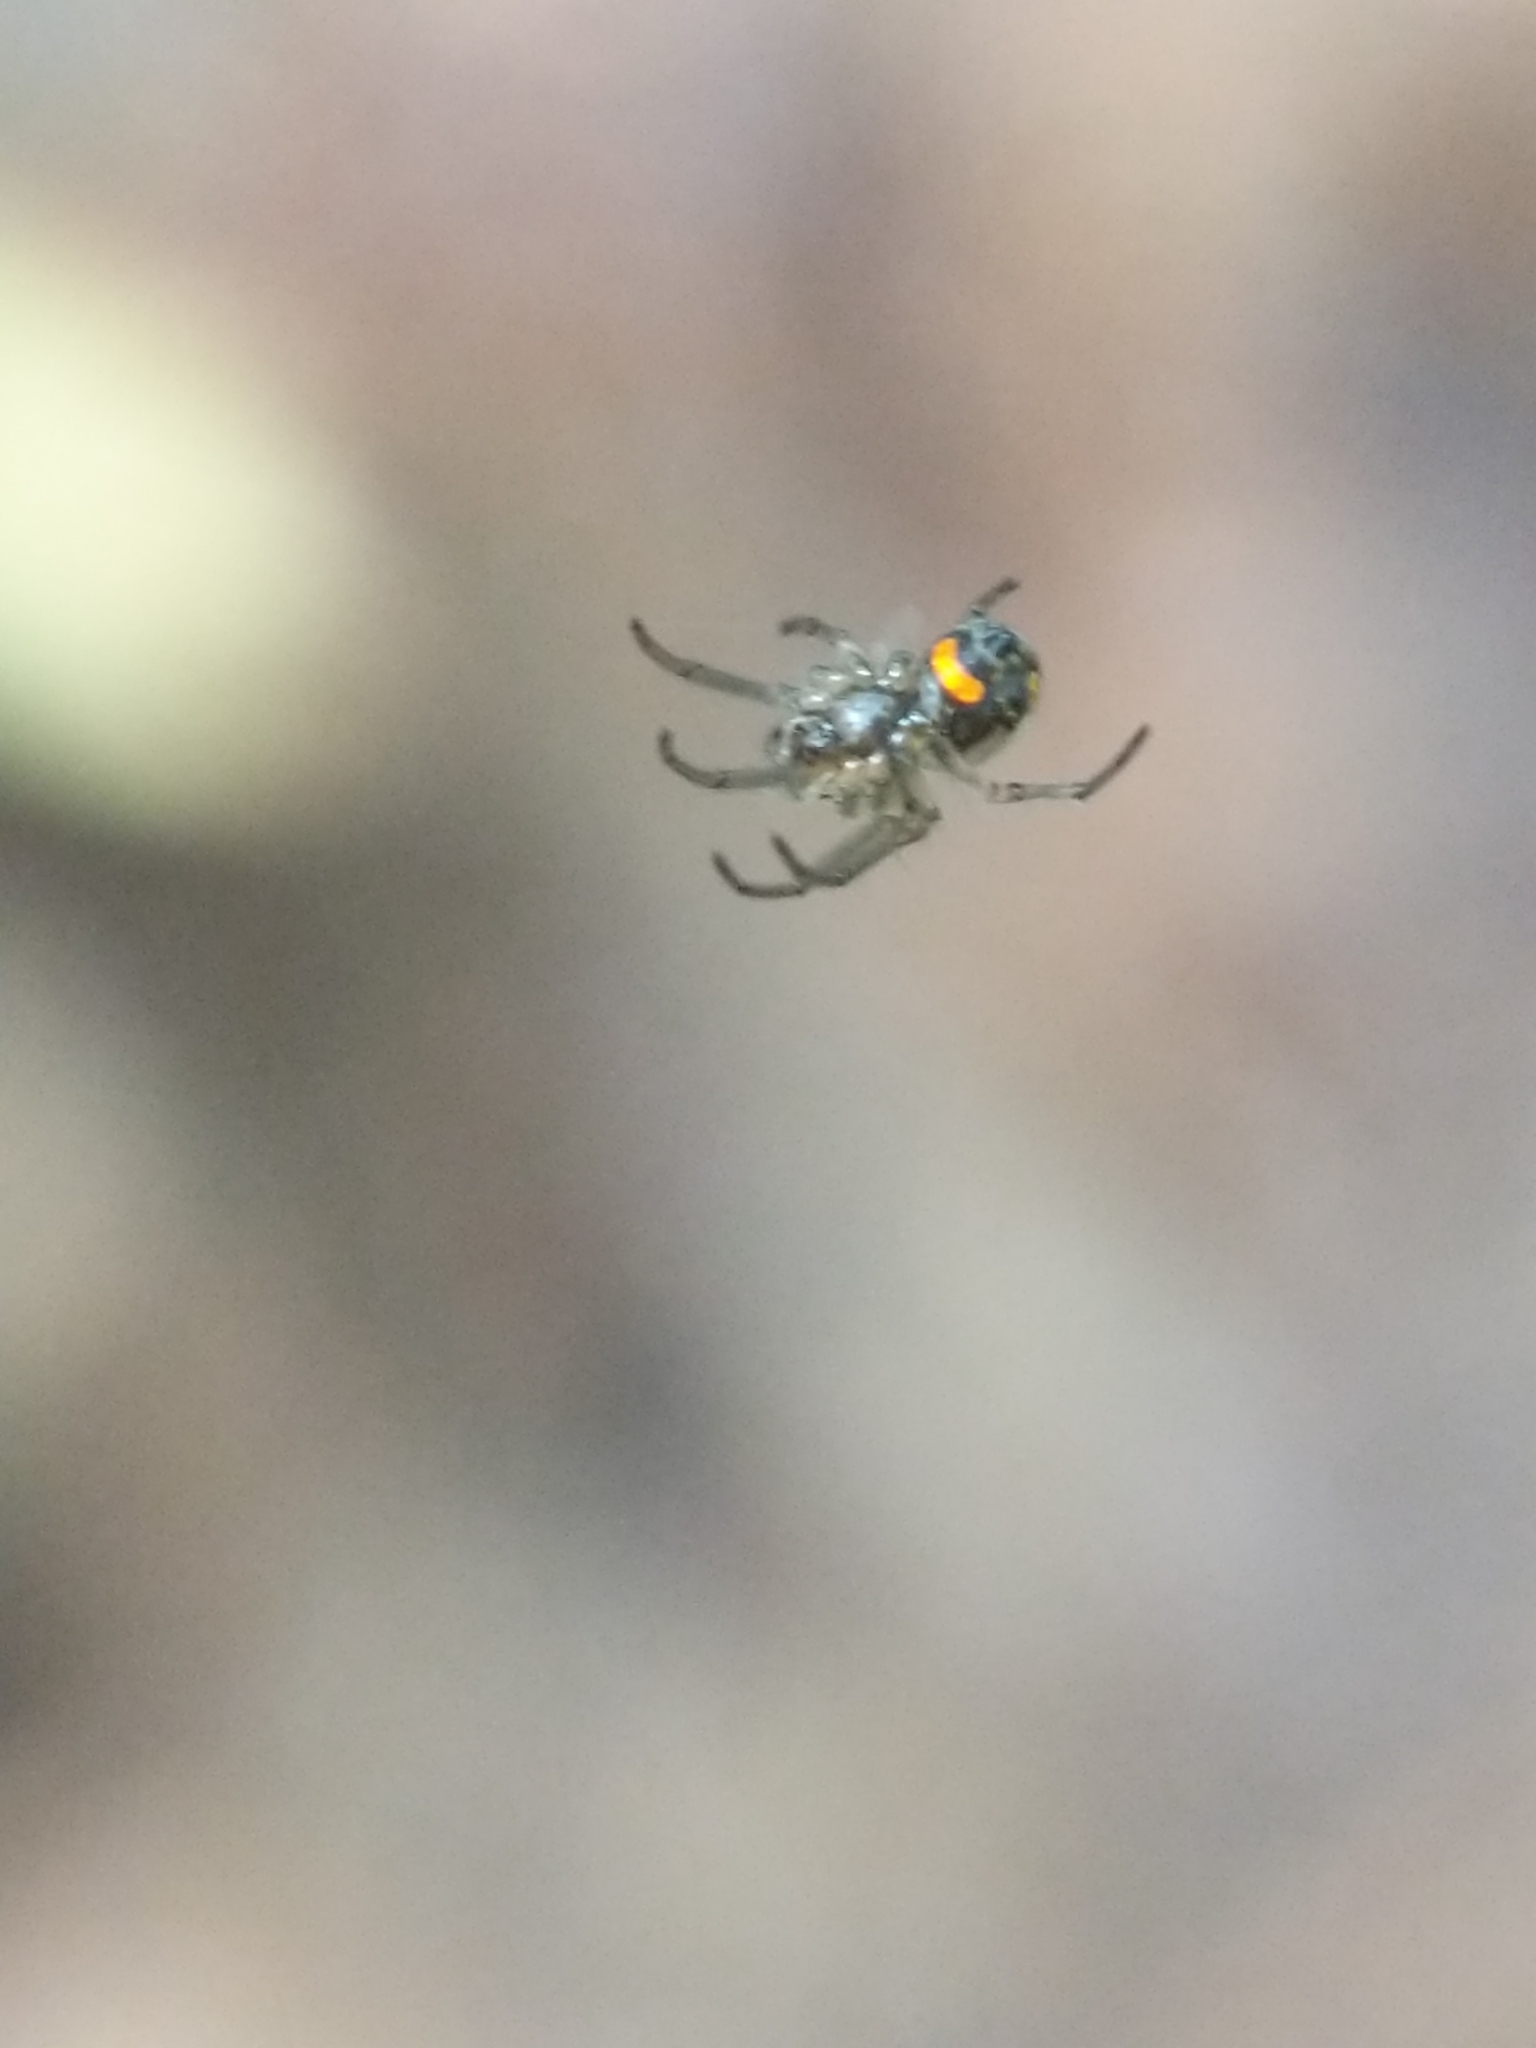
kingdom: Animalia
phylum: Arthropoda
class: Arachnida
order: Araneae
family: Tetragnathidae
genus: Leucauge
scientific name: Leucauge venusta
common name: Longjawed orb weavers
